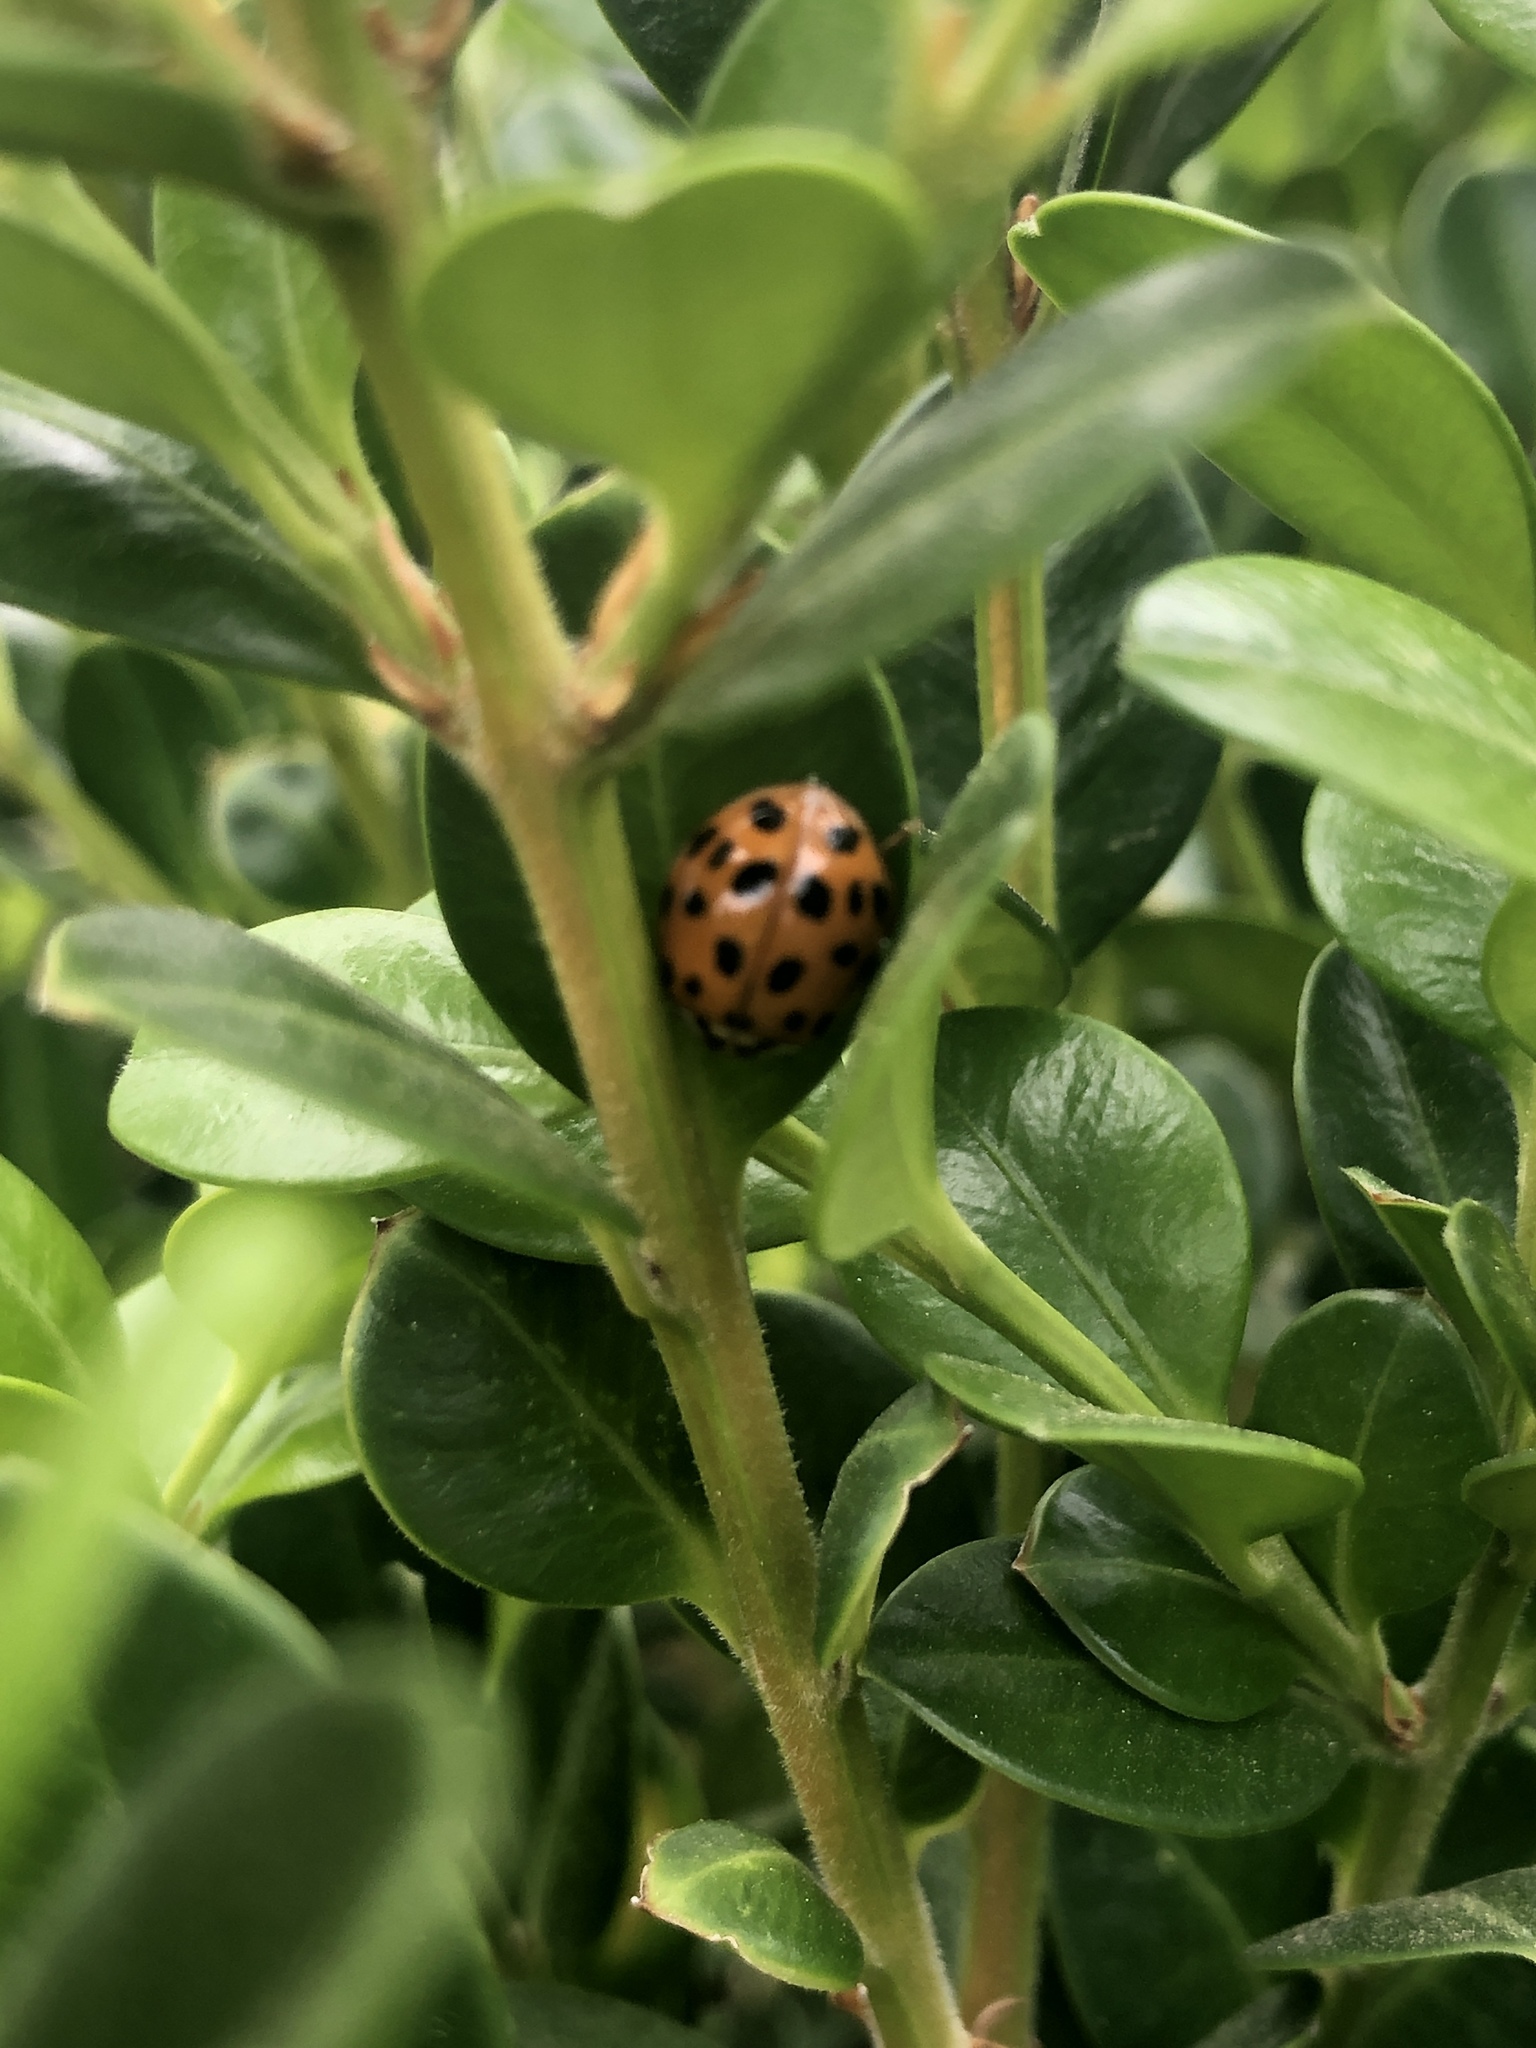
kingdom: Animalia
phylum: Arthropoda
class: Insecta
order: Coleoptera
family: Coccinellidae
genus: Harmonia
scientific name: Harmonia axyridis
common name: Harlequin ladybird
